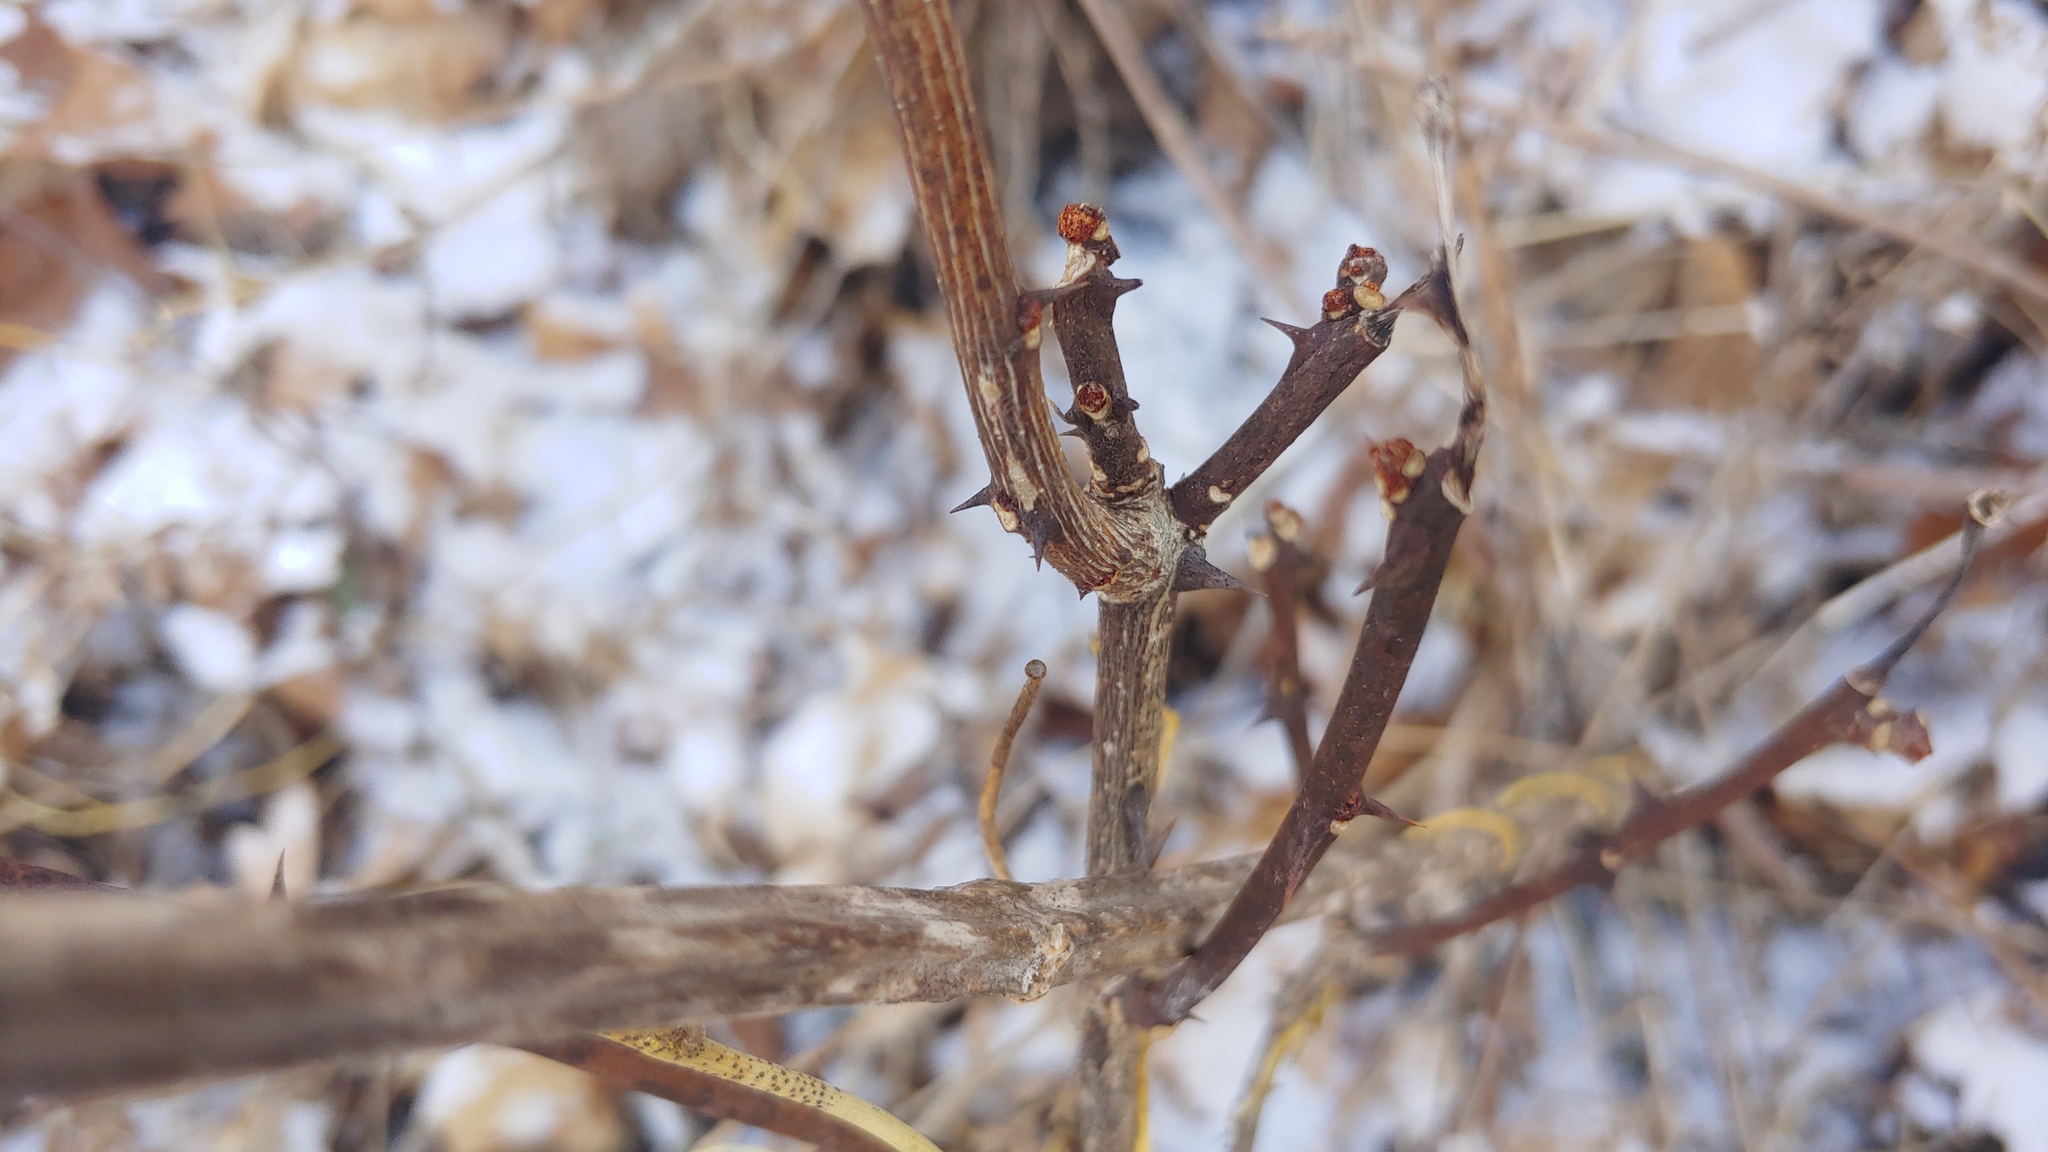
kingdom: Plantae
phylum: Tracheophyta
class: Magnoliopsida
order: Sapindales
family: Rutaceae
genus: Zanthoxylum
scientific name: Zanthoxylum americanum
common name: Northern prickly-ash
